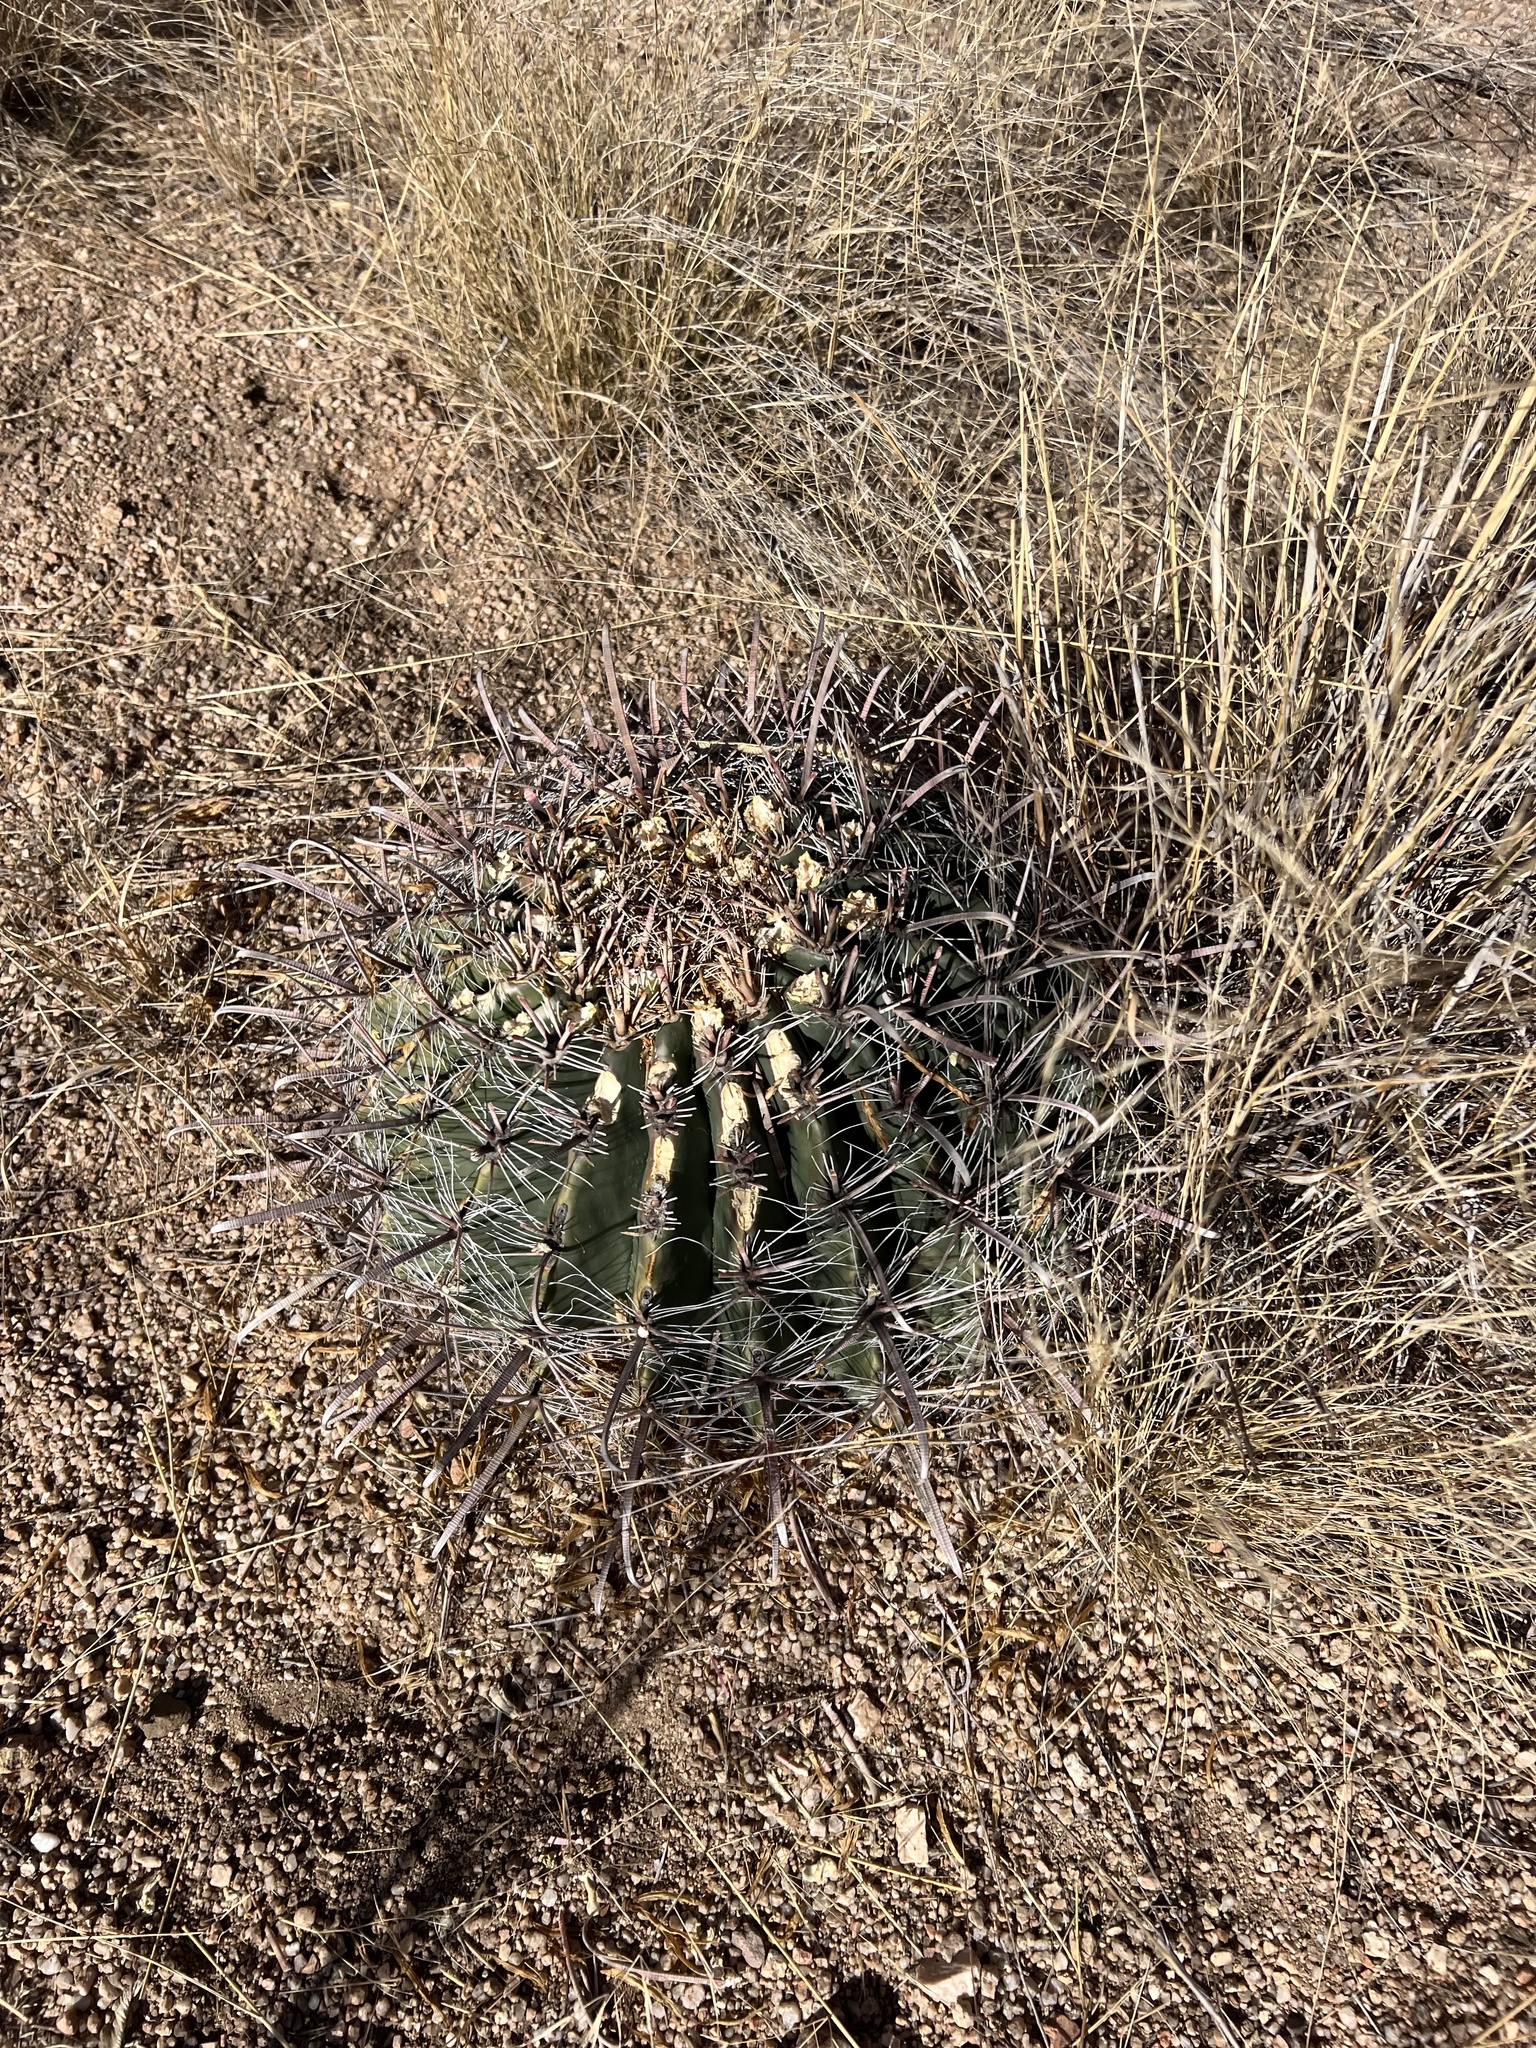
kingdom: Plantae
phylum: Tracheophyta
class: Magnoliopsida
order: Caryophyllales
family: Cactaceae
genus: Ferocactus
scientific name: Ferocactus wislizeni
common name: Candy barrel cactus
